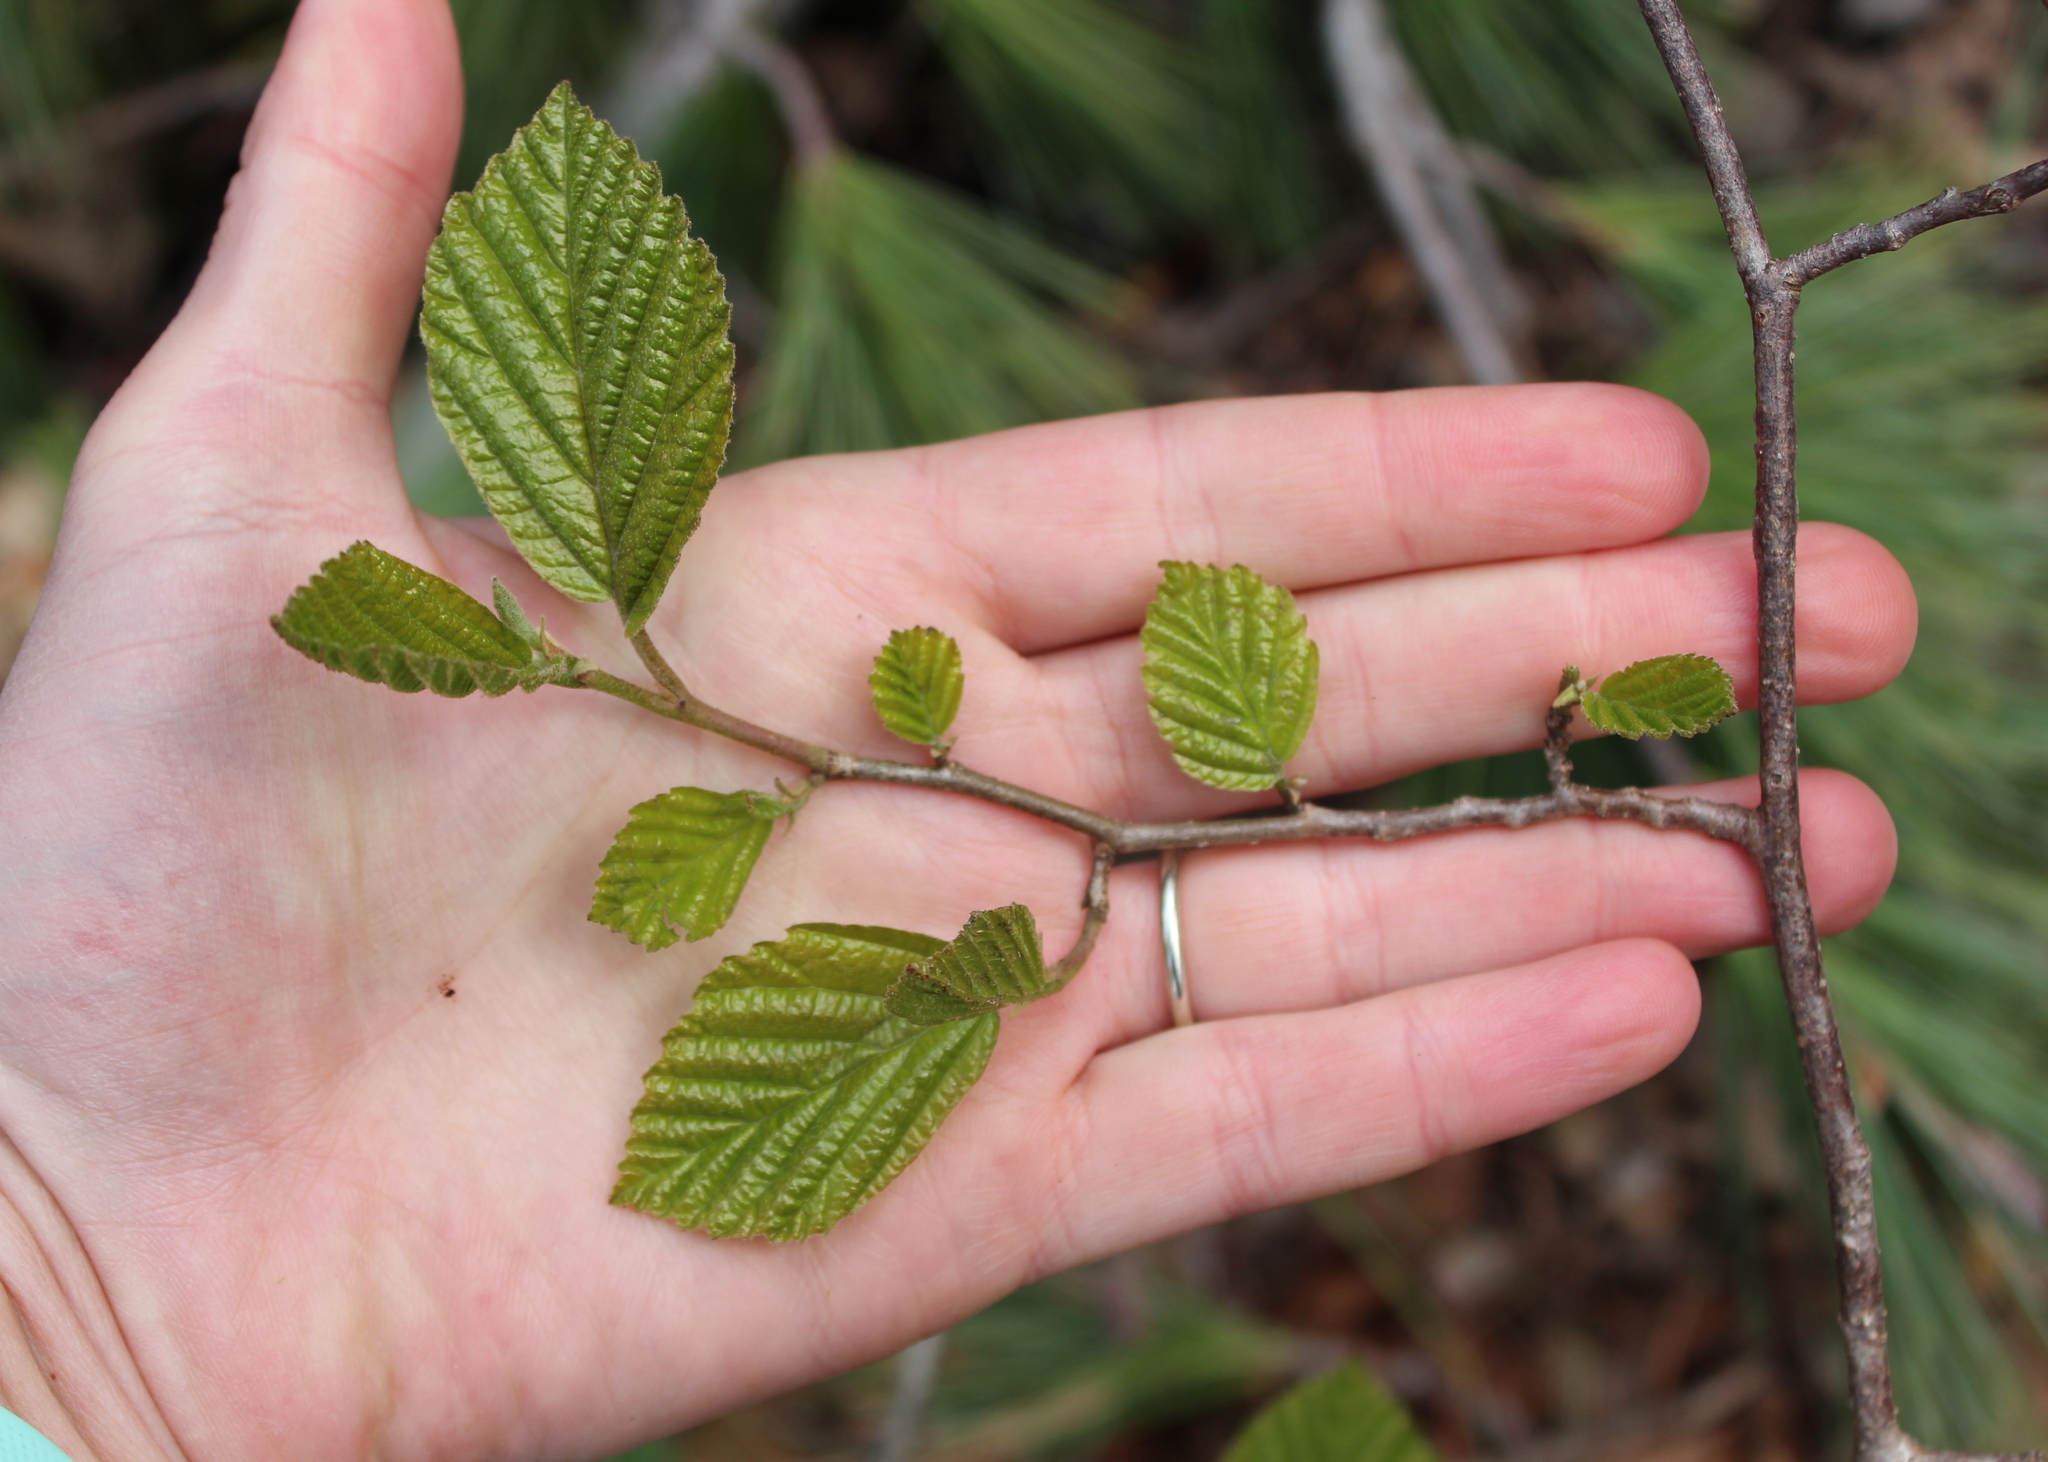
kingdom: Plantae
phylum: Tracheophyta
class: Magnoliopsida
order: Saxifragales
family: Hamamelidaceae
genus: Hamamelis
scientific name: Hamamelis virginiana
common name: Witch-hazel
